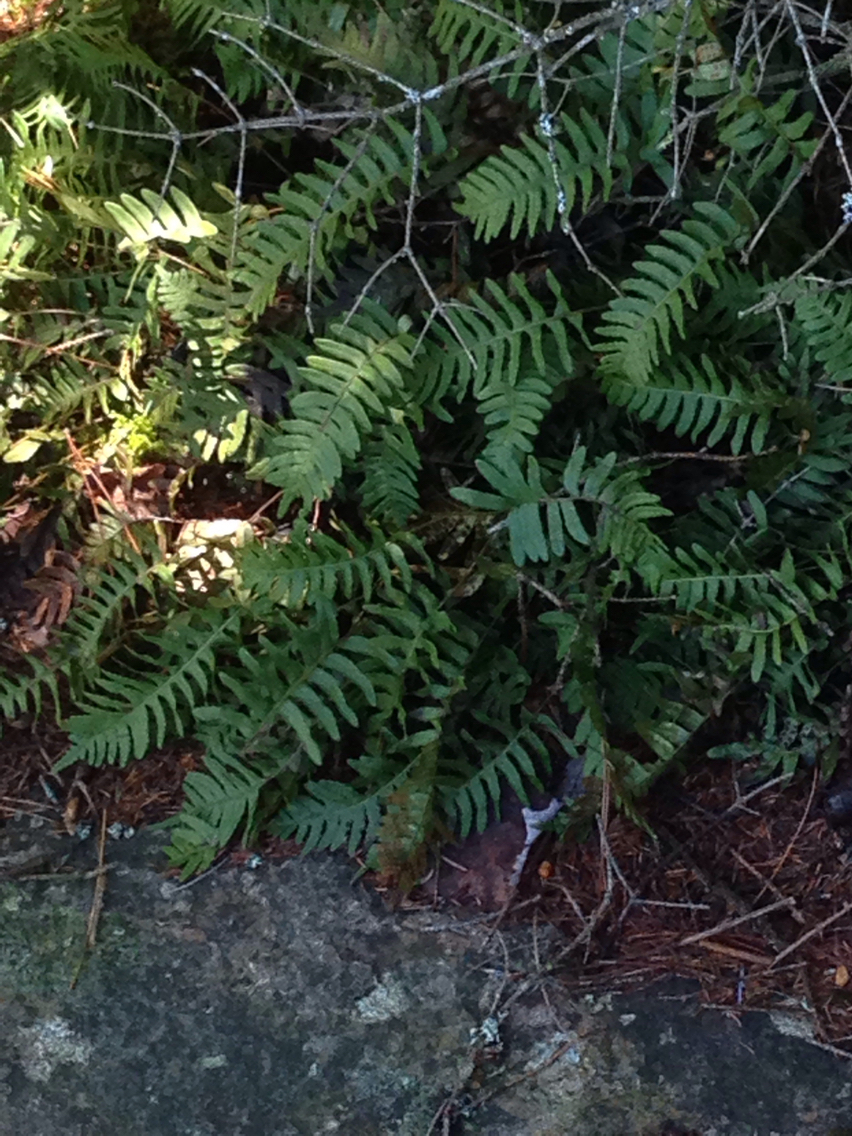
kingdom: Plantae
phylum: Tracheophyta
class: Polypodiopsida
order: Polypodiales
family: Polypodiaceae
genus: Polypodium
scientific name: Polypodium virginianum
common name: American wall fern
